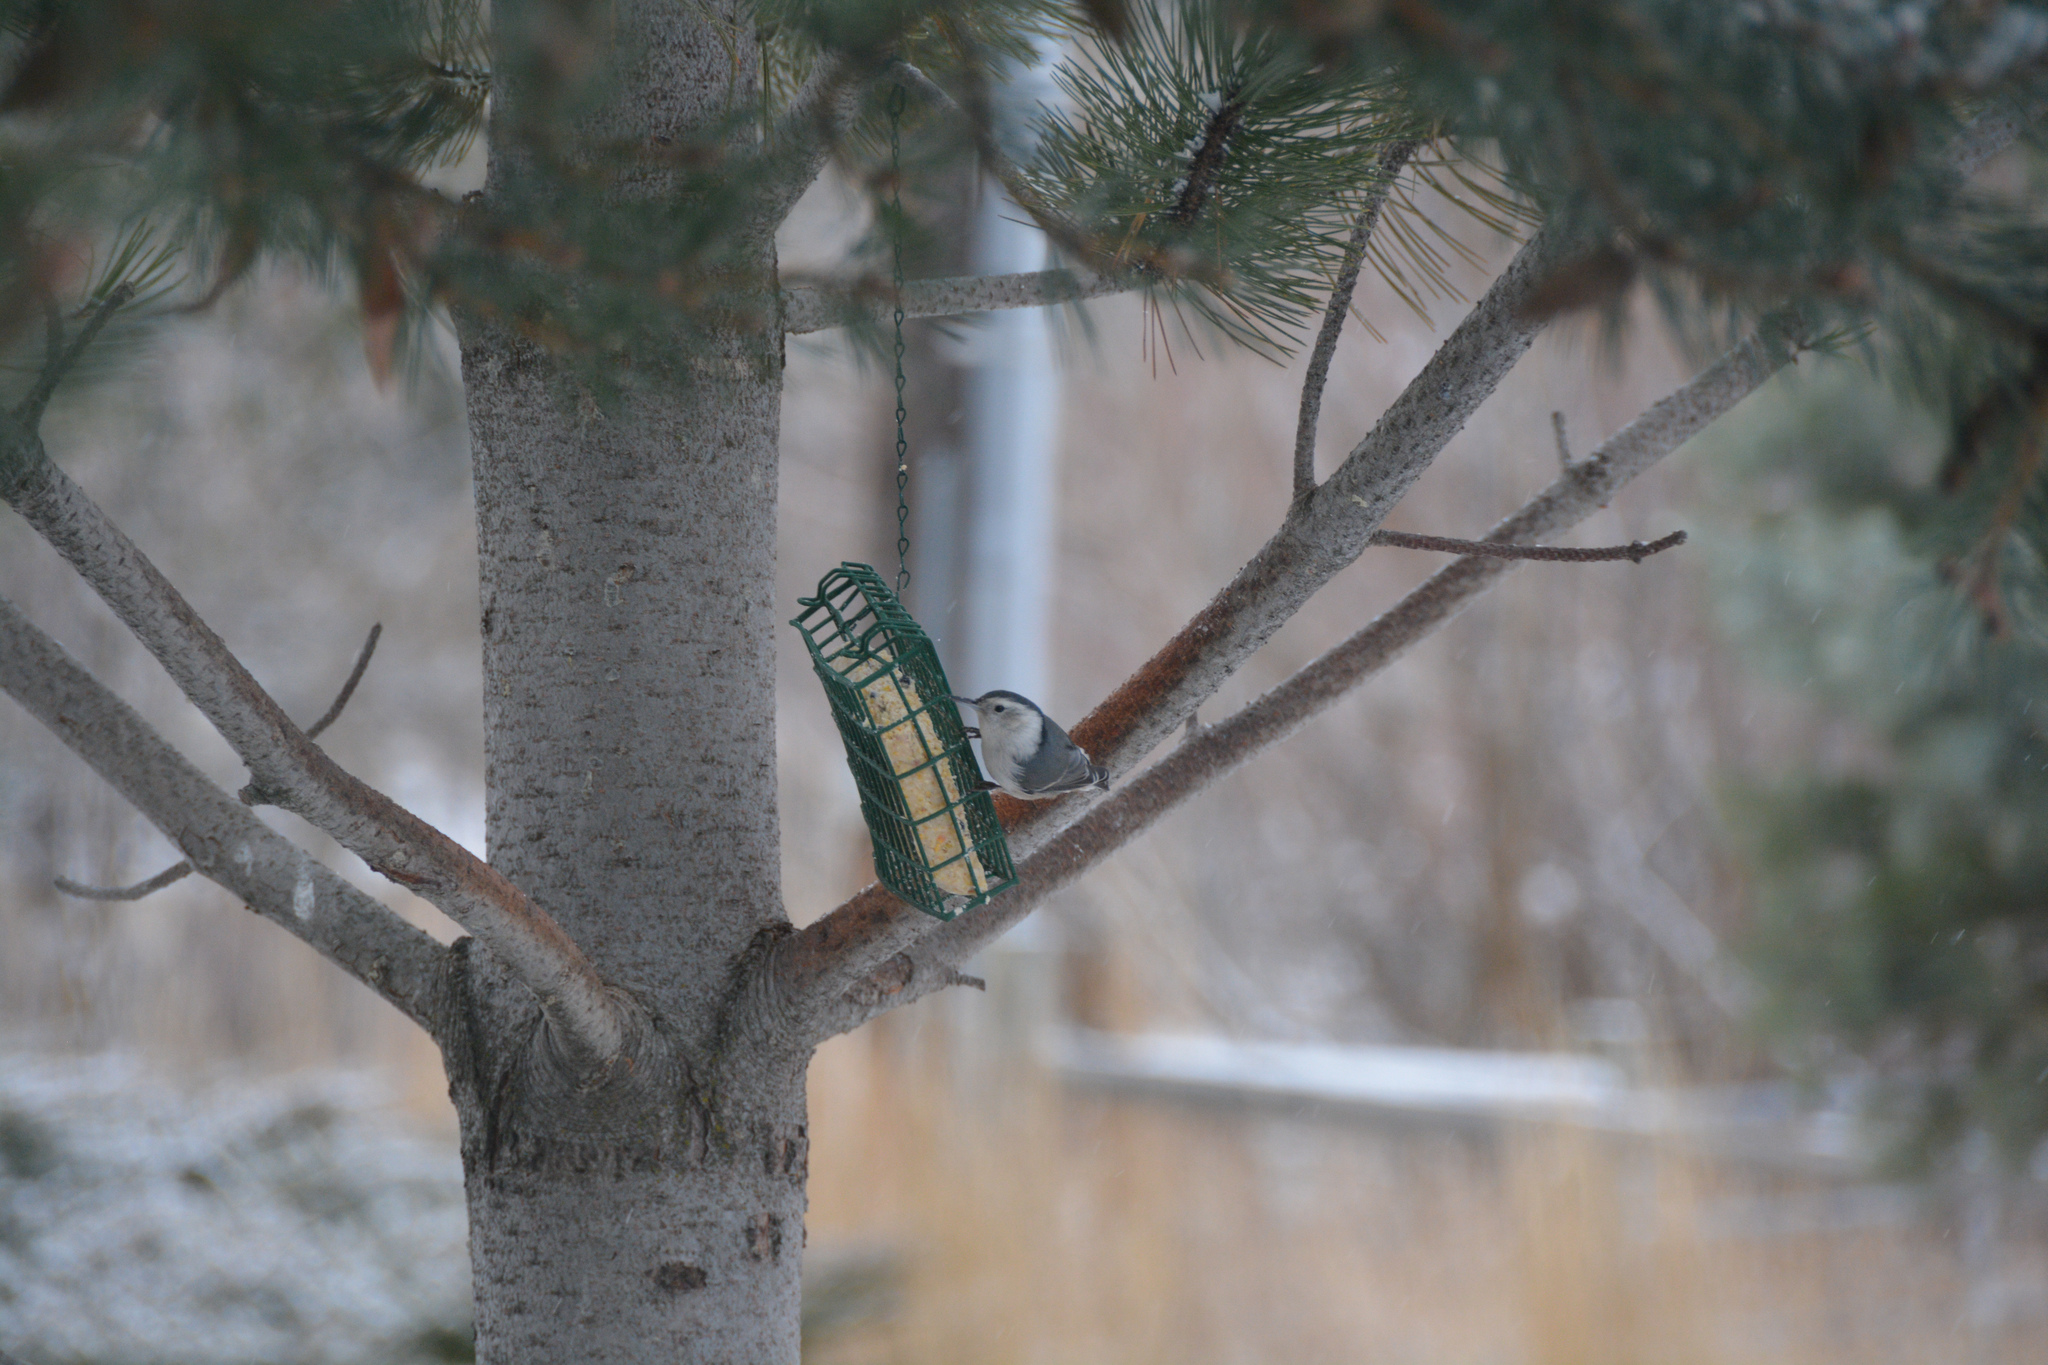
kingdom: Animalia
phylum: Chordata
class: Aves
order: Passeriformes
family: Sittidae
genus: Sitta
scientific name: Sitta carolinensis
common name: White-breasted nuthatch
